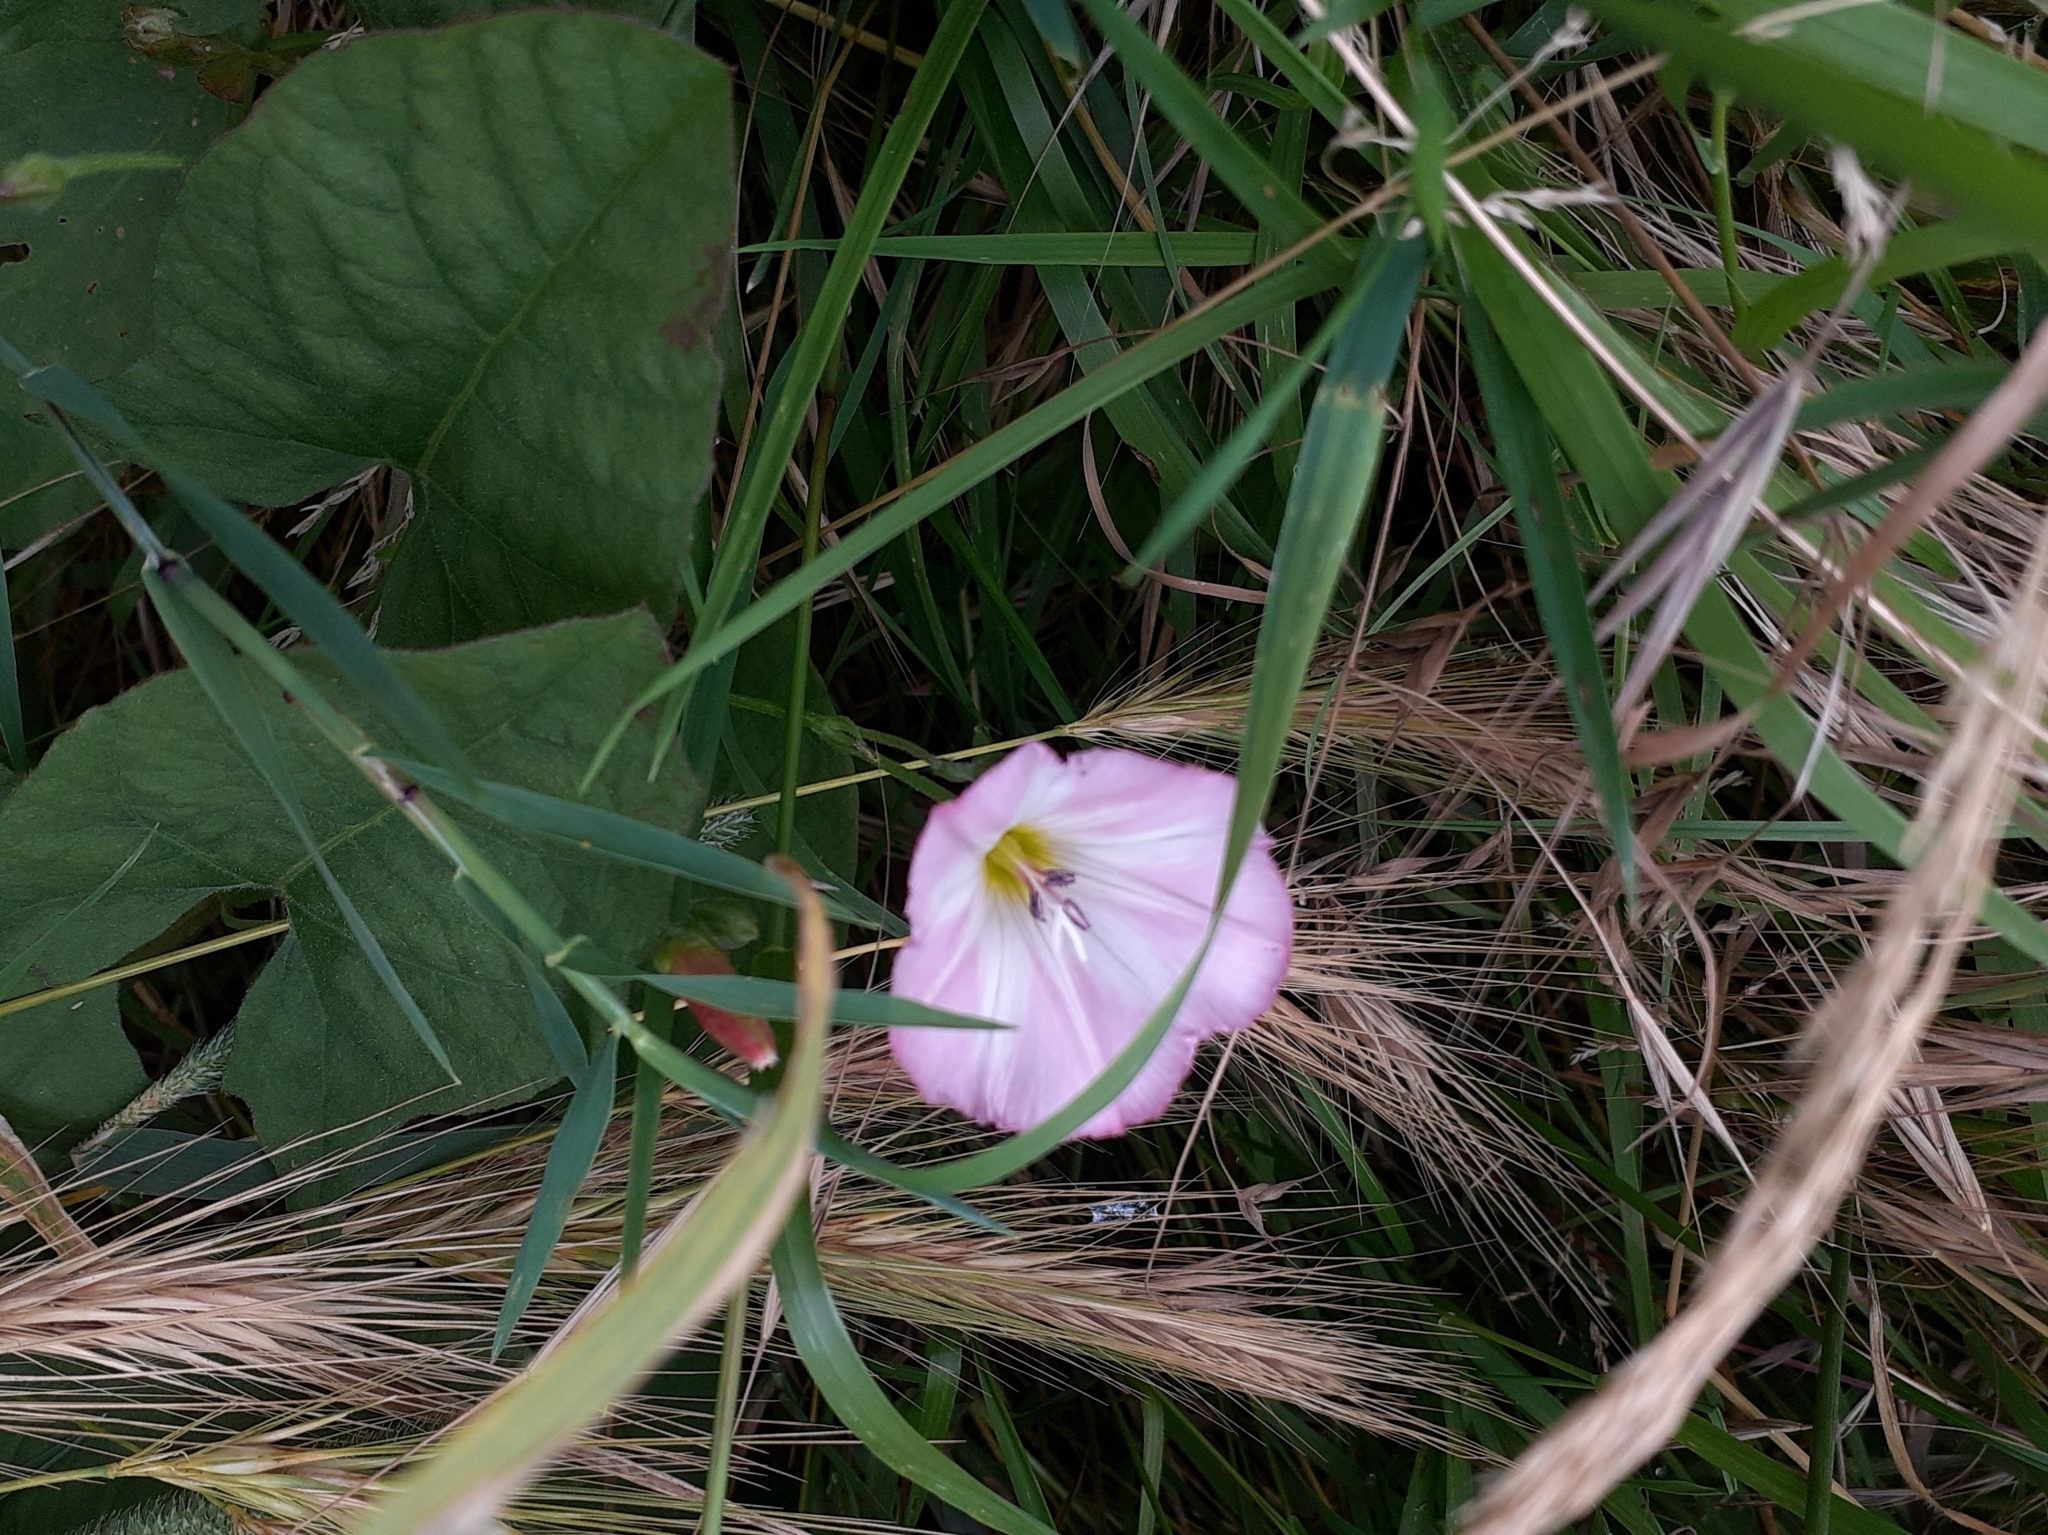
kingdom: Plantae
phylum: Tracheophyta
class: Magnoliopsida
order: Solanales
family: Convolvulaceae
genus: Convolvulus
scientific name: Convolvulus arvensis
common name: Field bindweed
